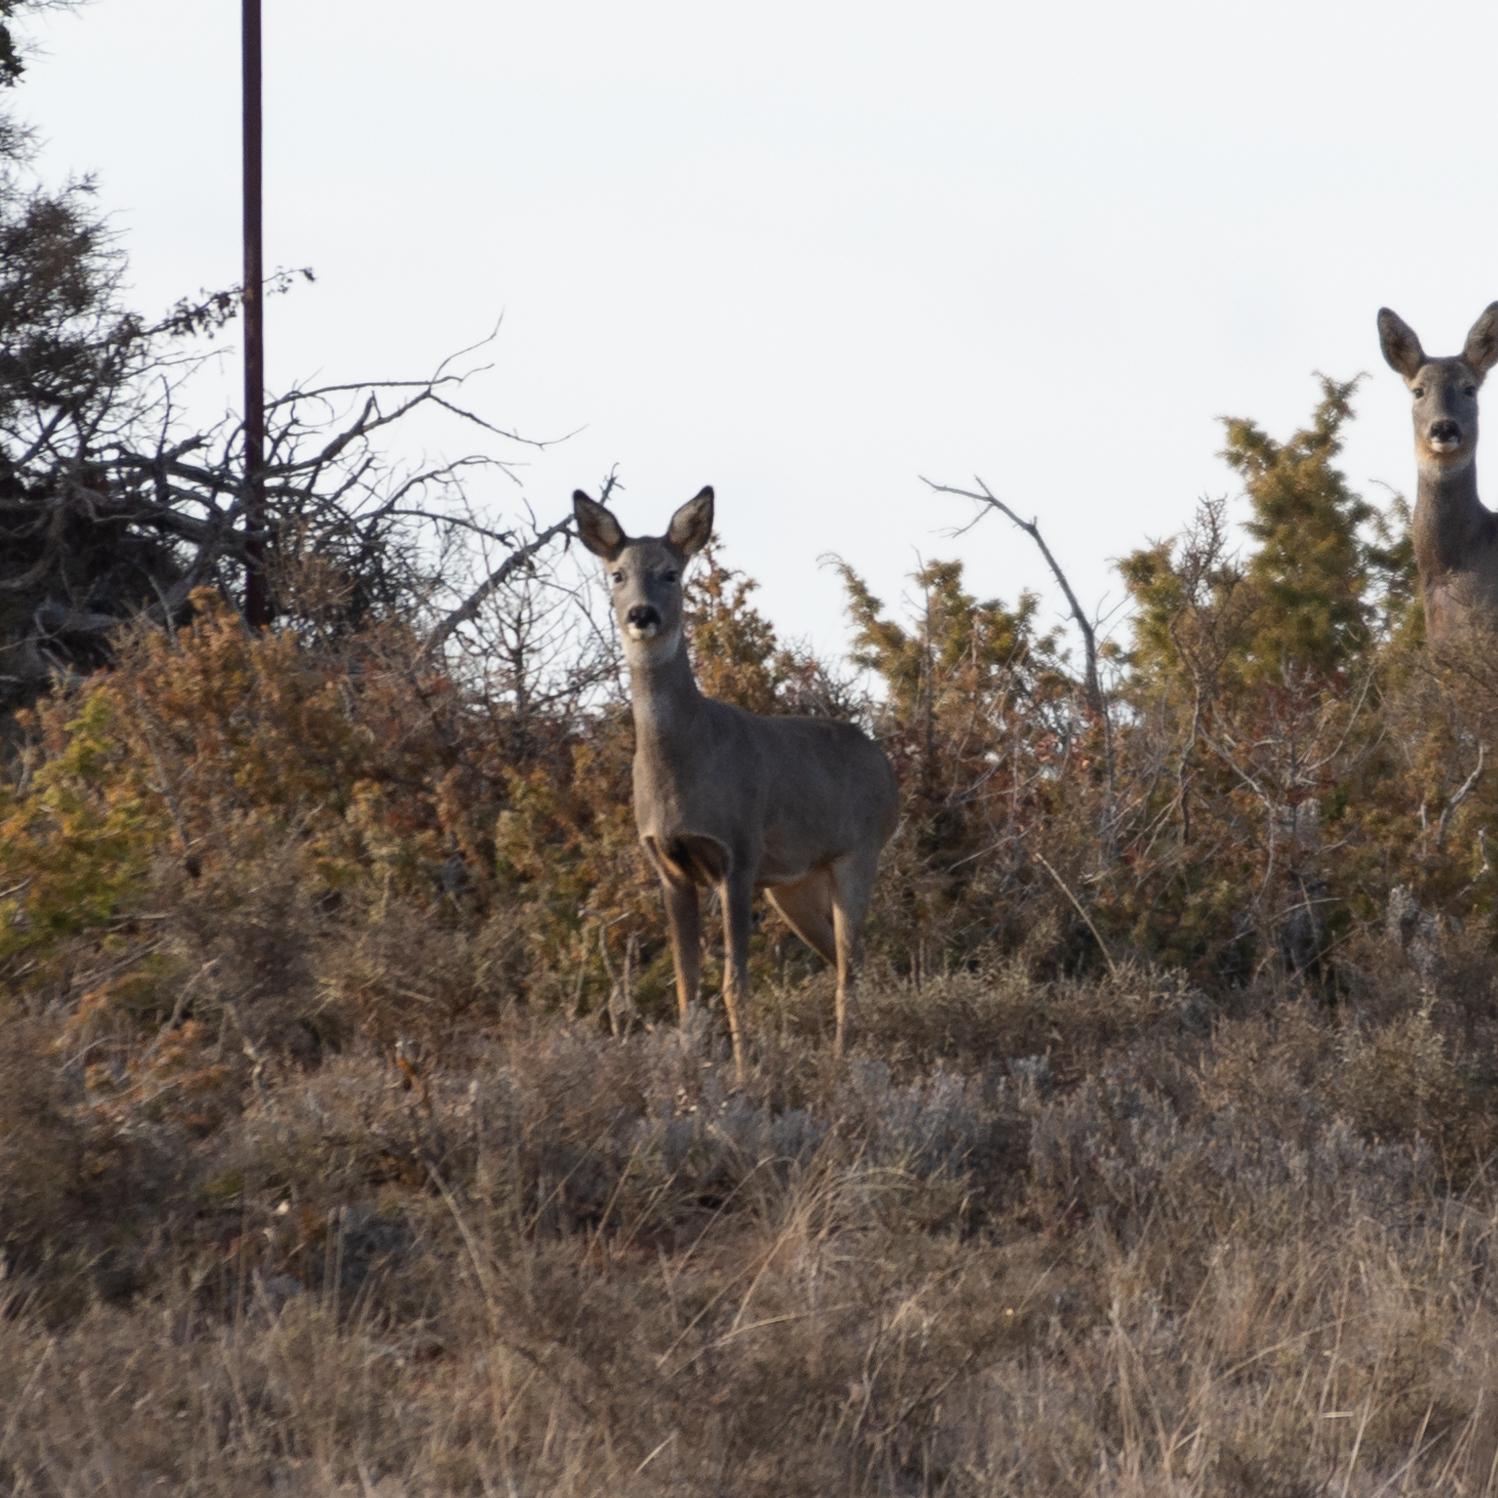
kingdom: Animalia
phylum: Chordata
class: Mammalia
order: Artiodactyla
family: Cervidae
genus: Capreolus
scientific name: Capreolus capreolus
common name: Western roe deer
